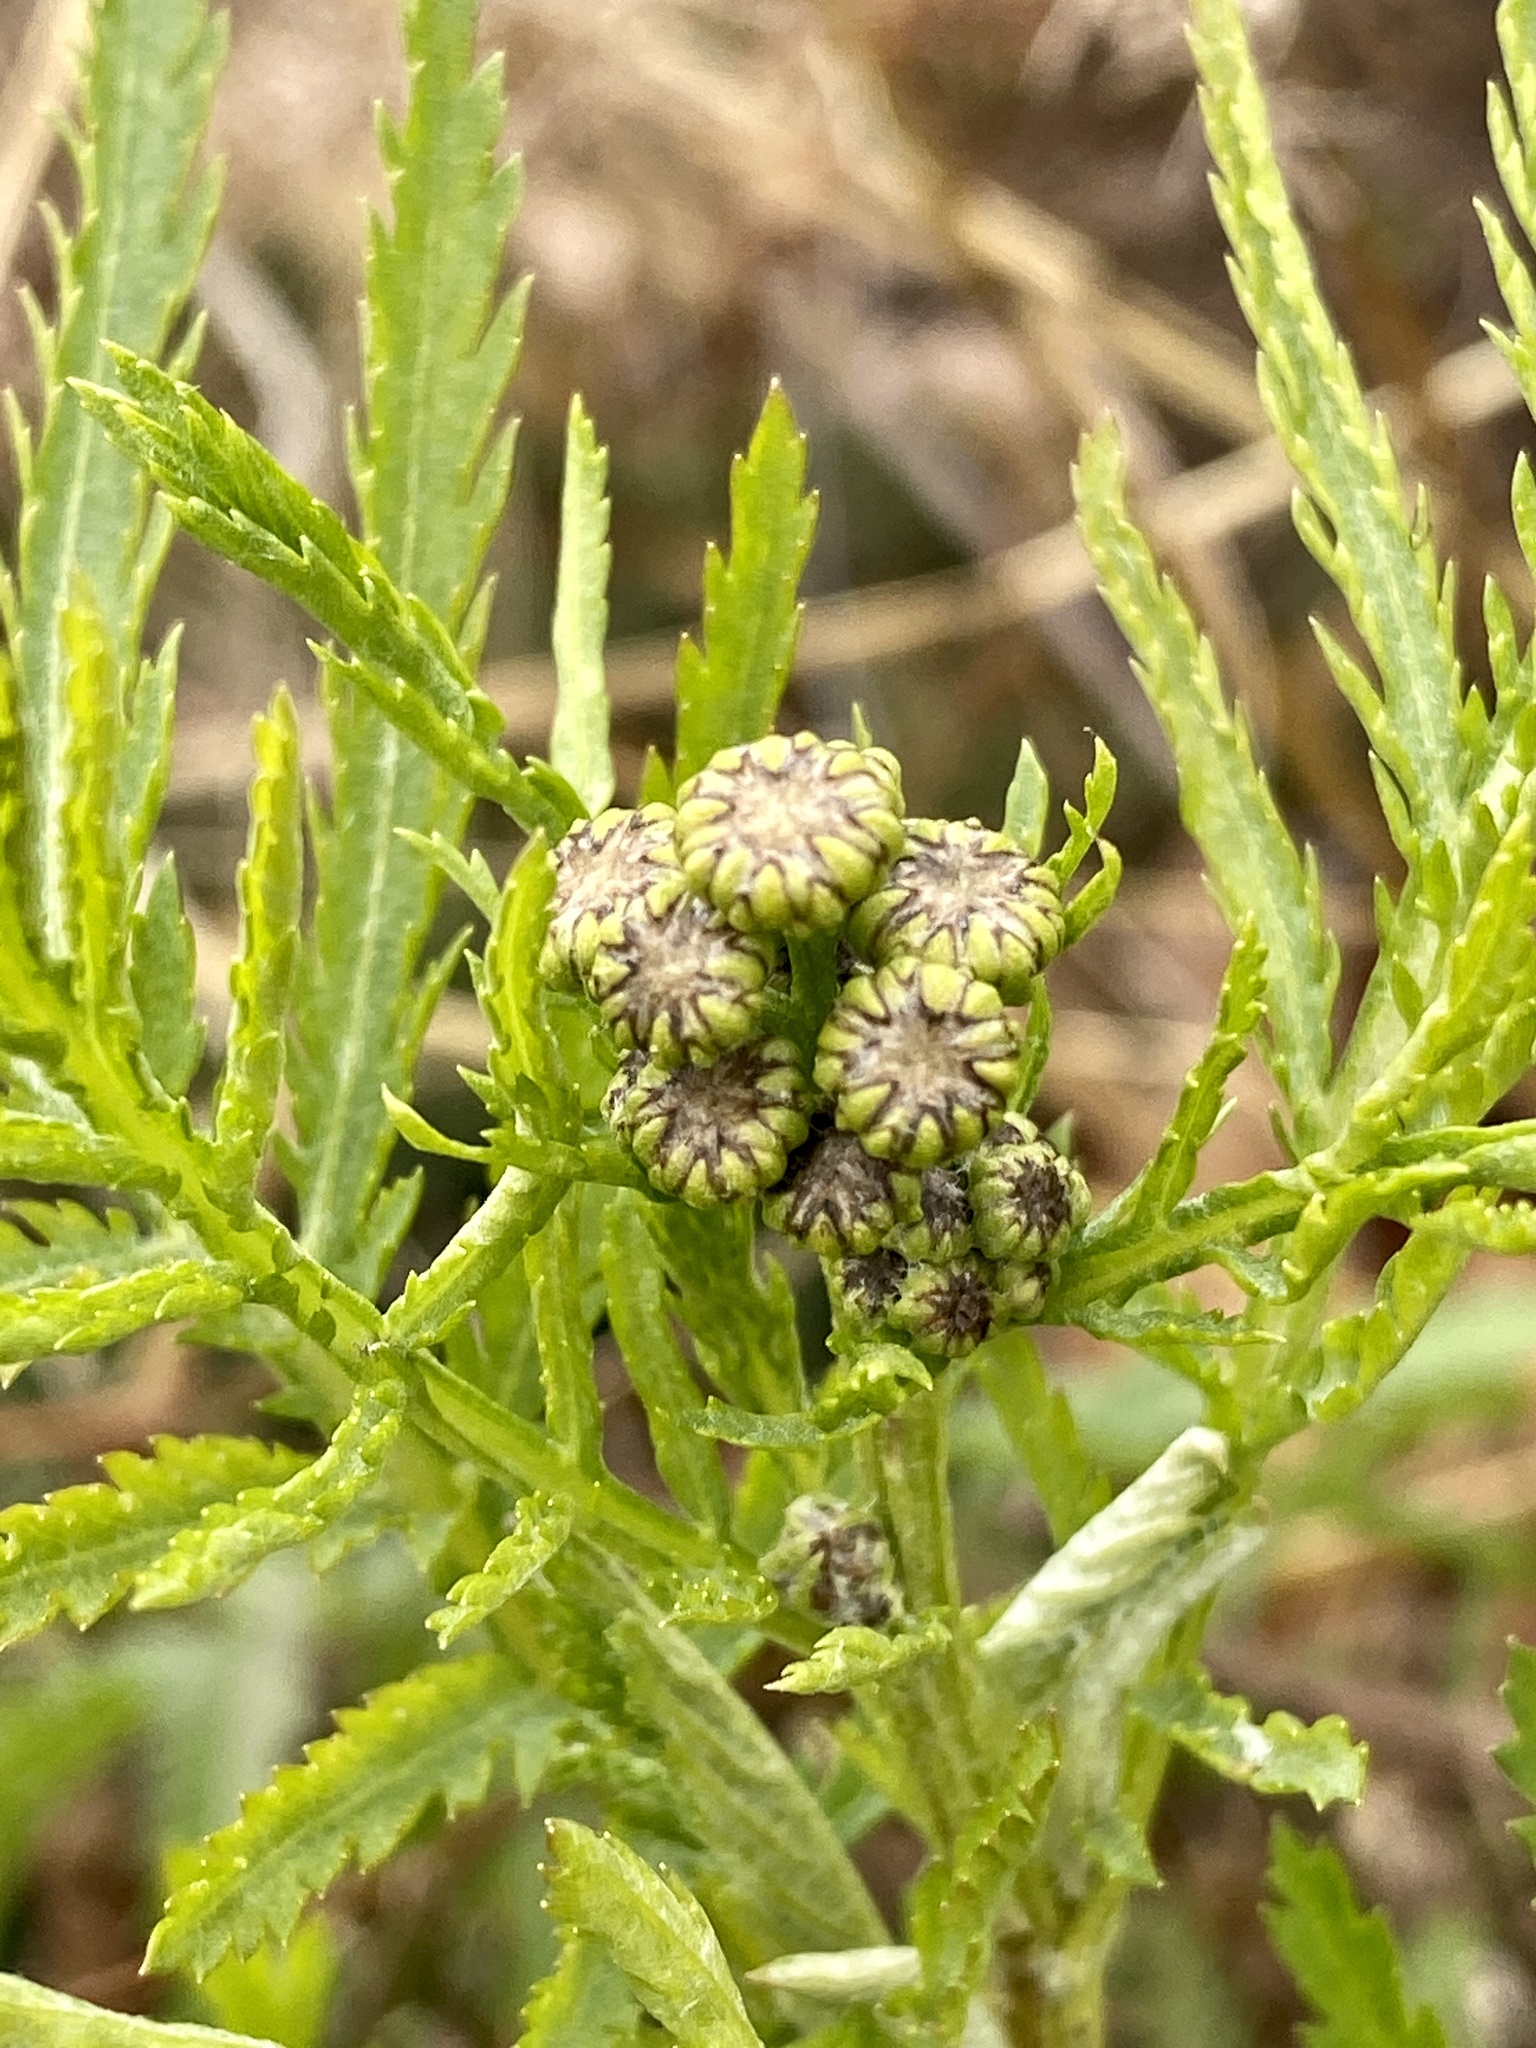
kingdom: Plantae
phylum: Tracheophyta
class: Magnoliopsida
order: Asterales
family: Asteraceae
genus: Tanacetum
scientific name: Tanacetum vulgare
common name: Common tansy
